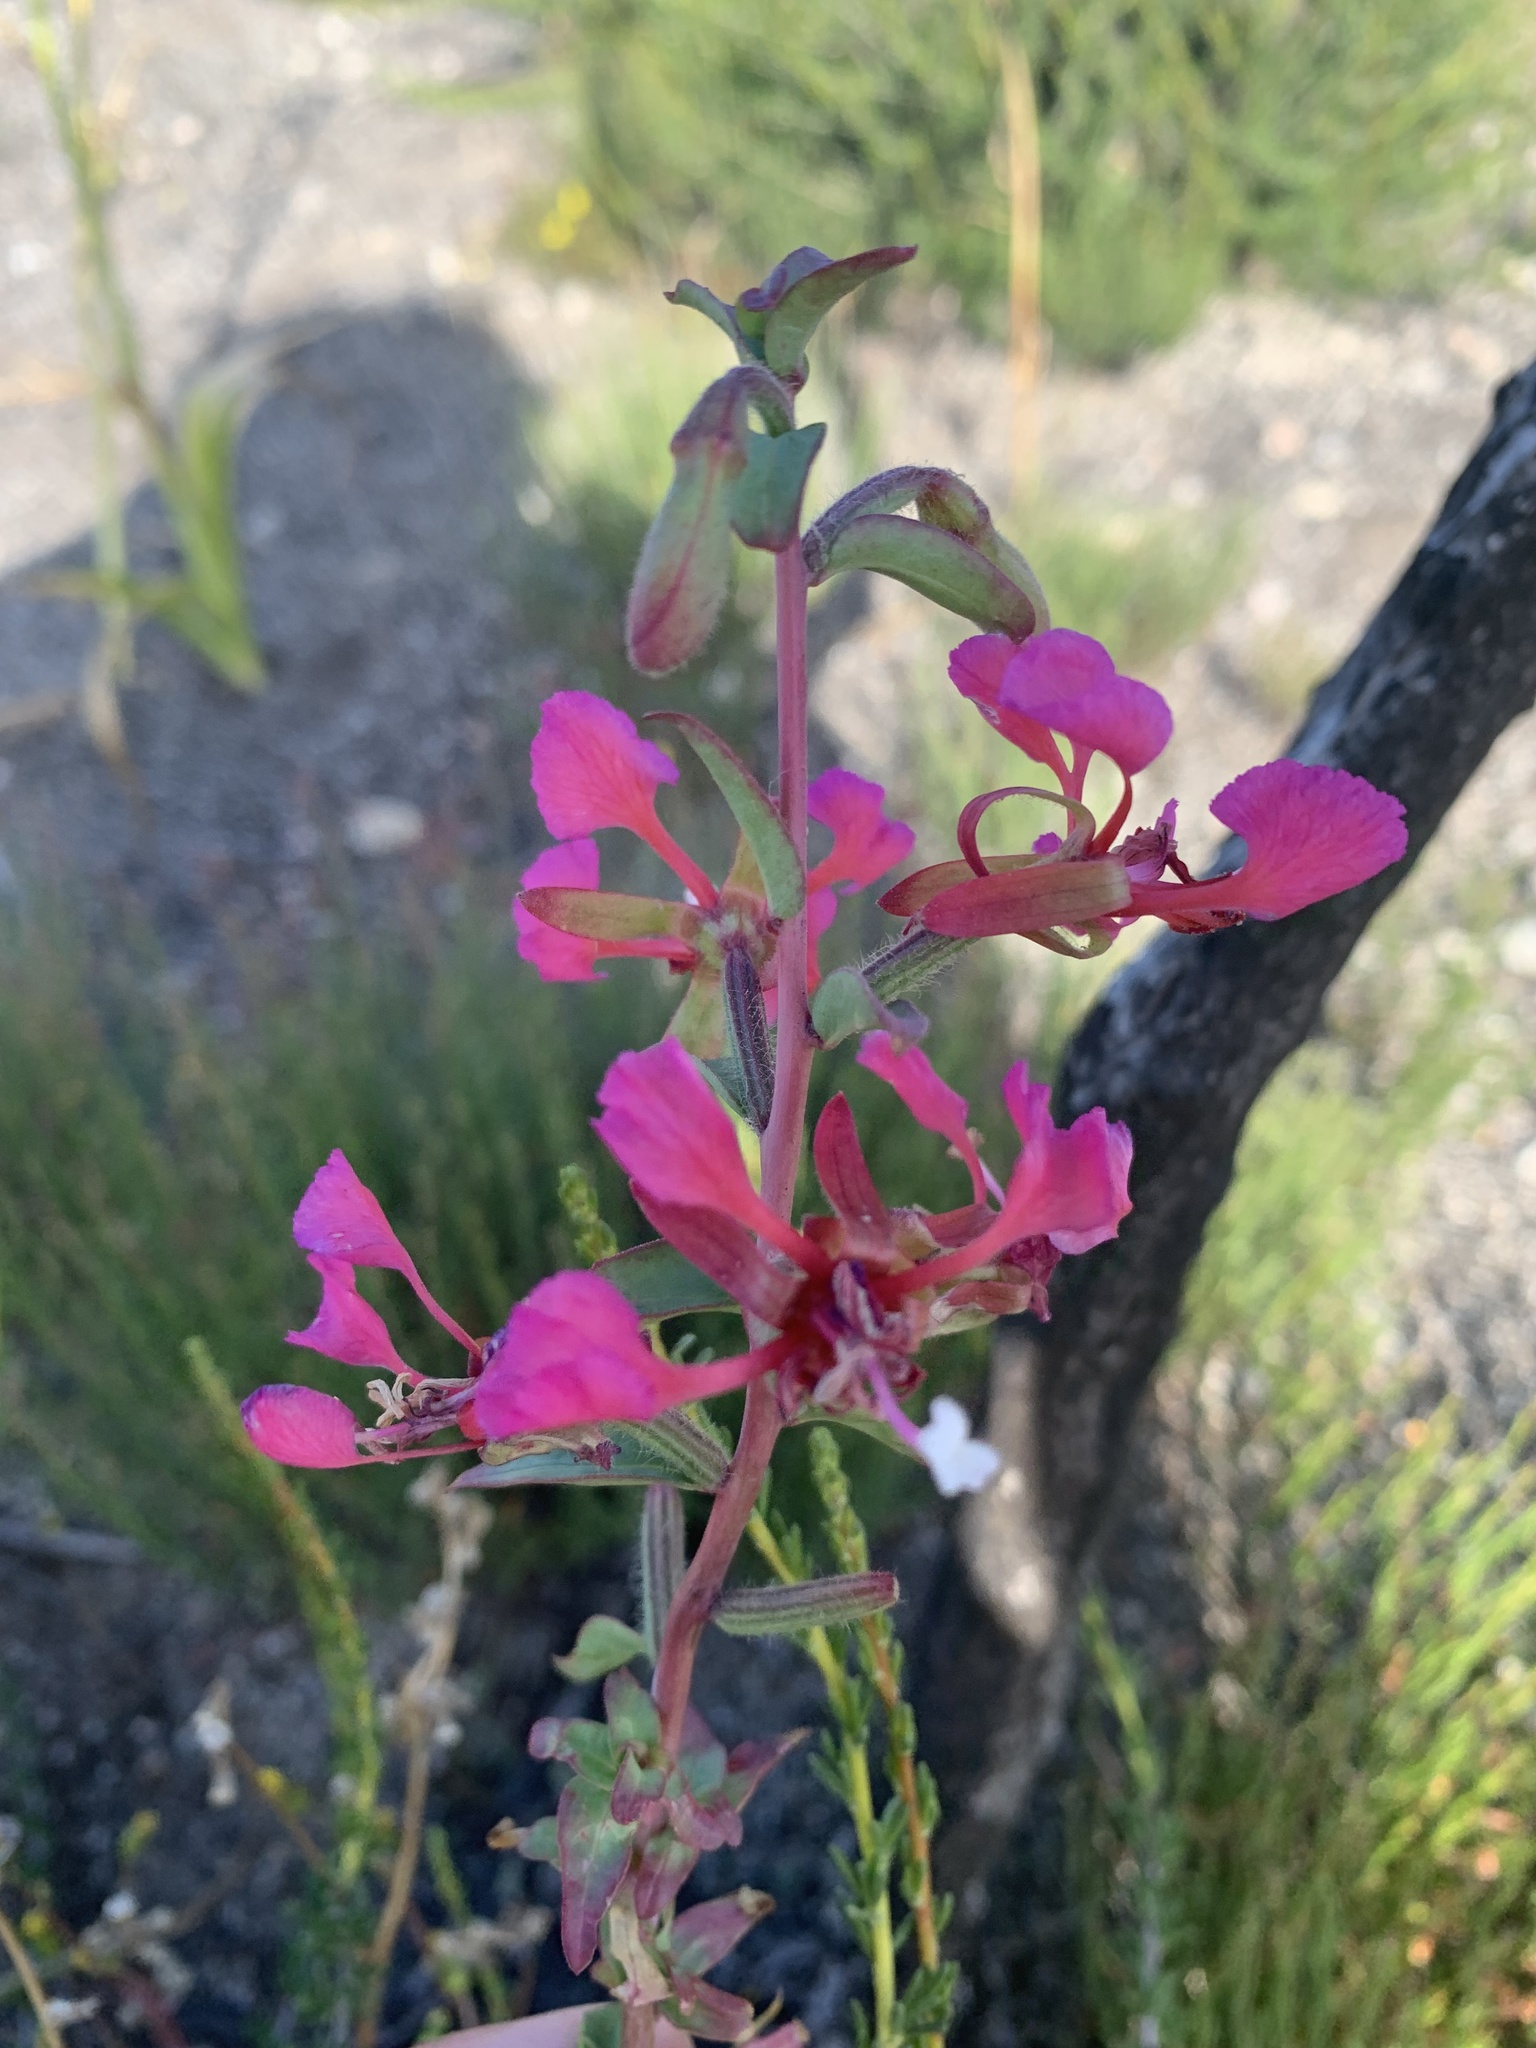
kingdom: Plantae
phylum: Tracheophyta
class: Magnoliopsida
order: Myrtales
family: Onagraceae
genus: Clarkia
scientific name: Clarkia unguiculata
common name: Clarkia
